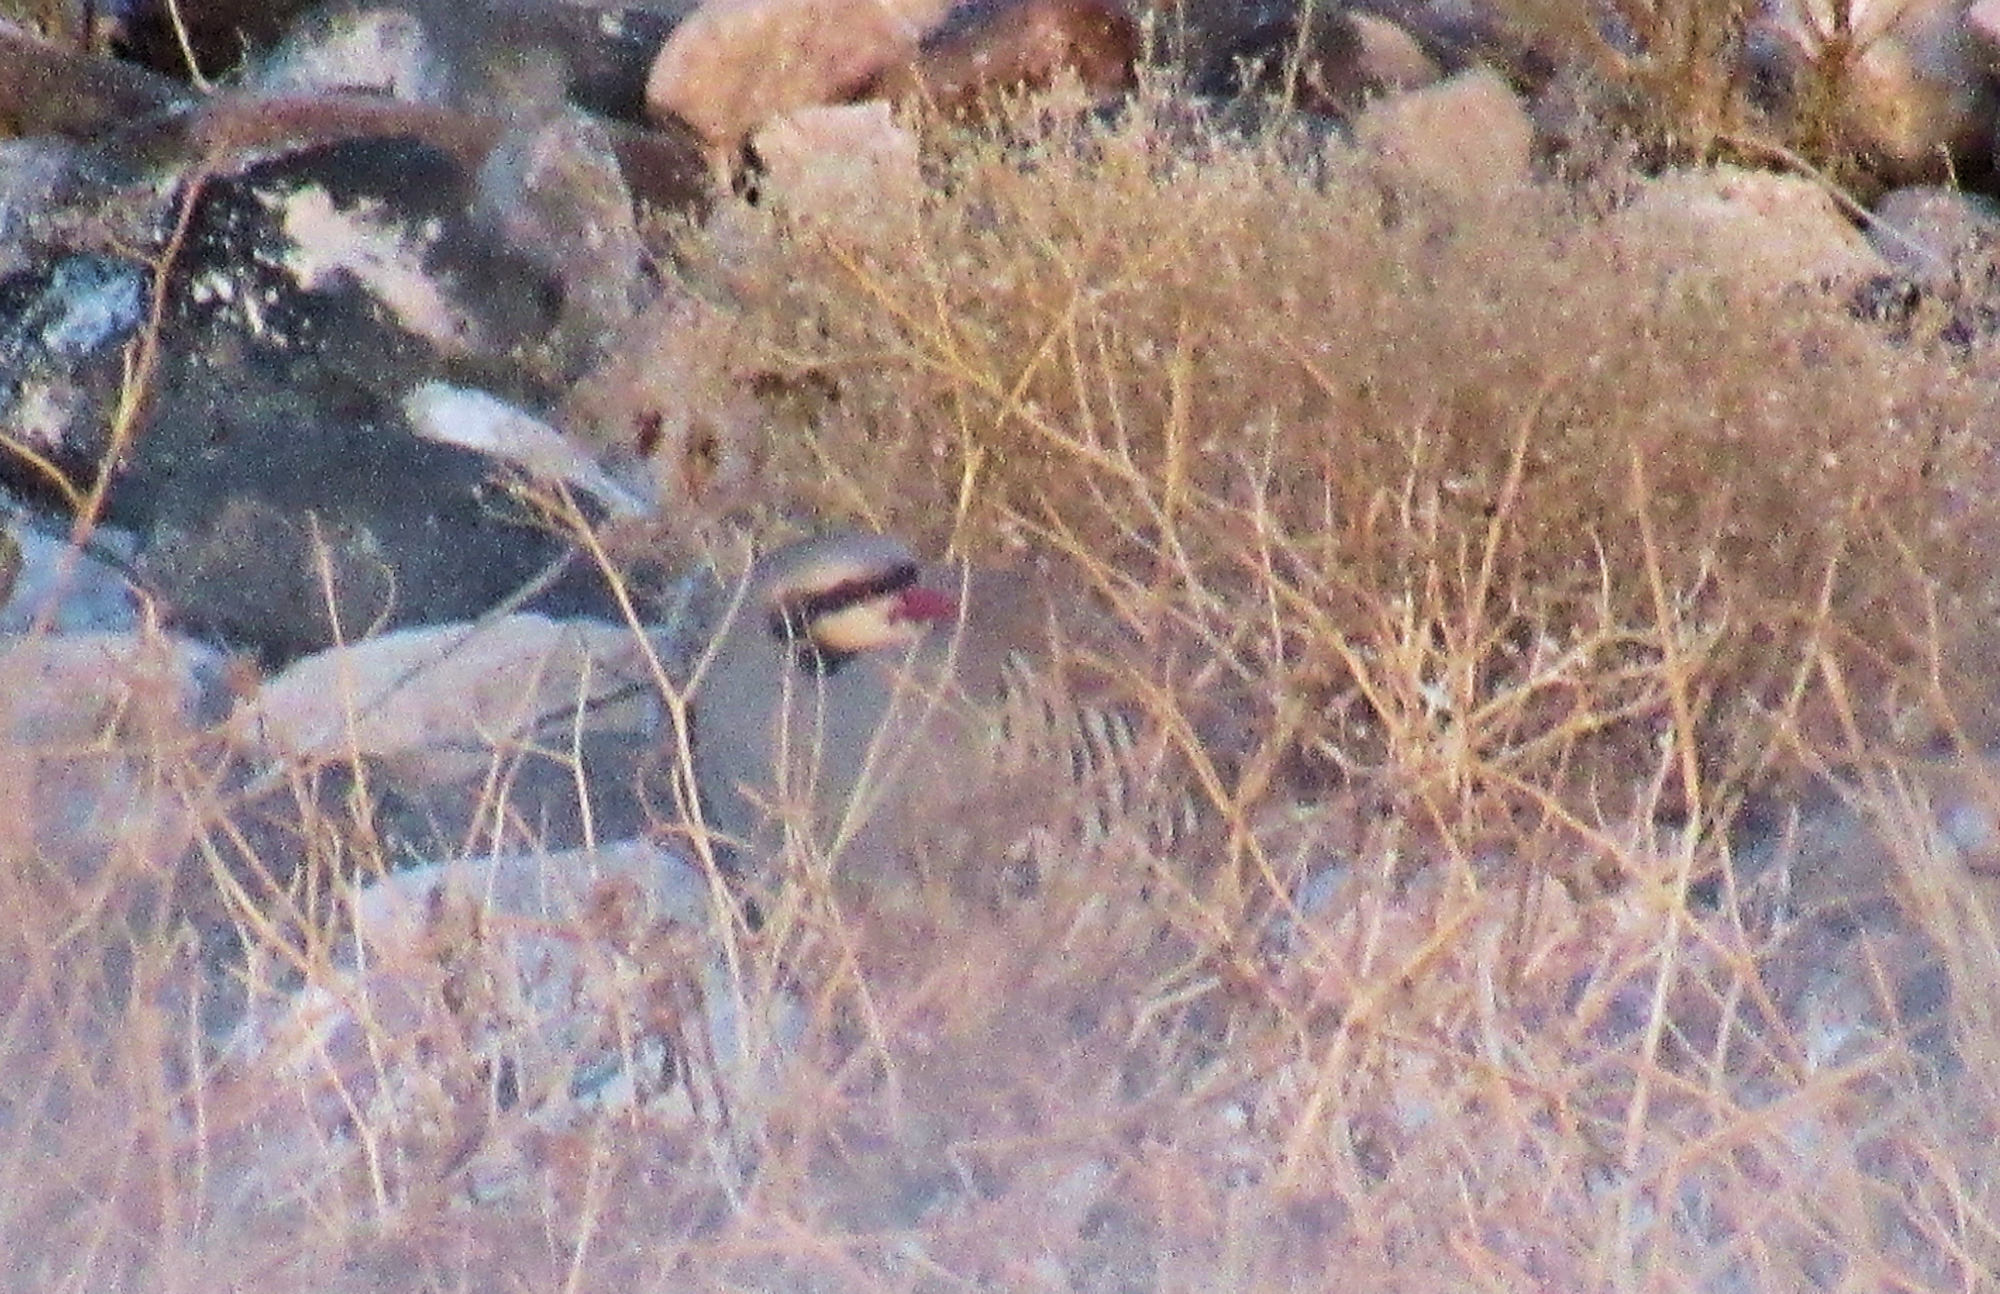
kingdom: Animalia
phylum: Chordata
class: Aves
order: Galliformes
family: Phasianidae
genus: Alectoris
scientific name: Alectoris chukar
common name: Chukar
